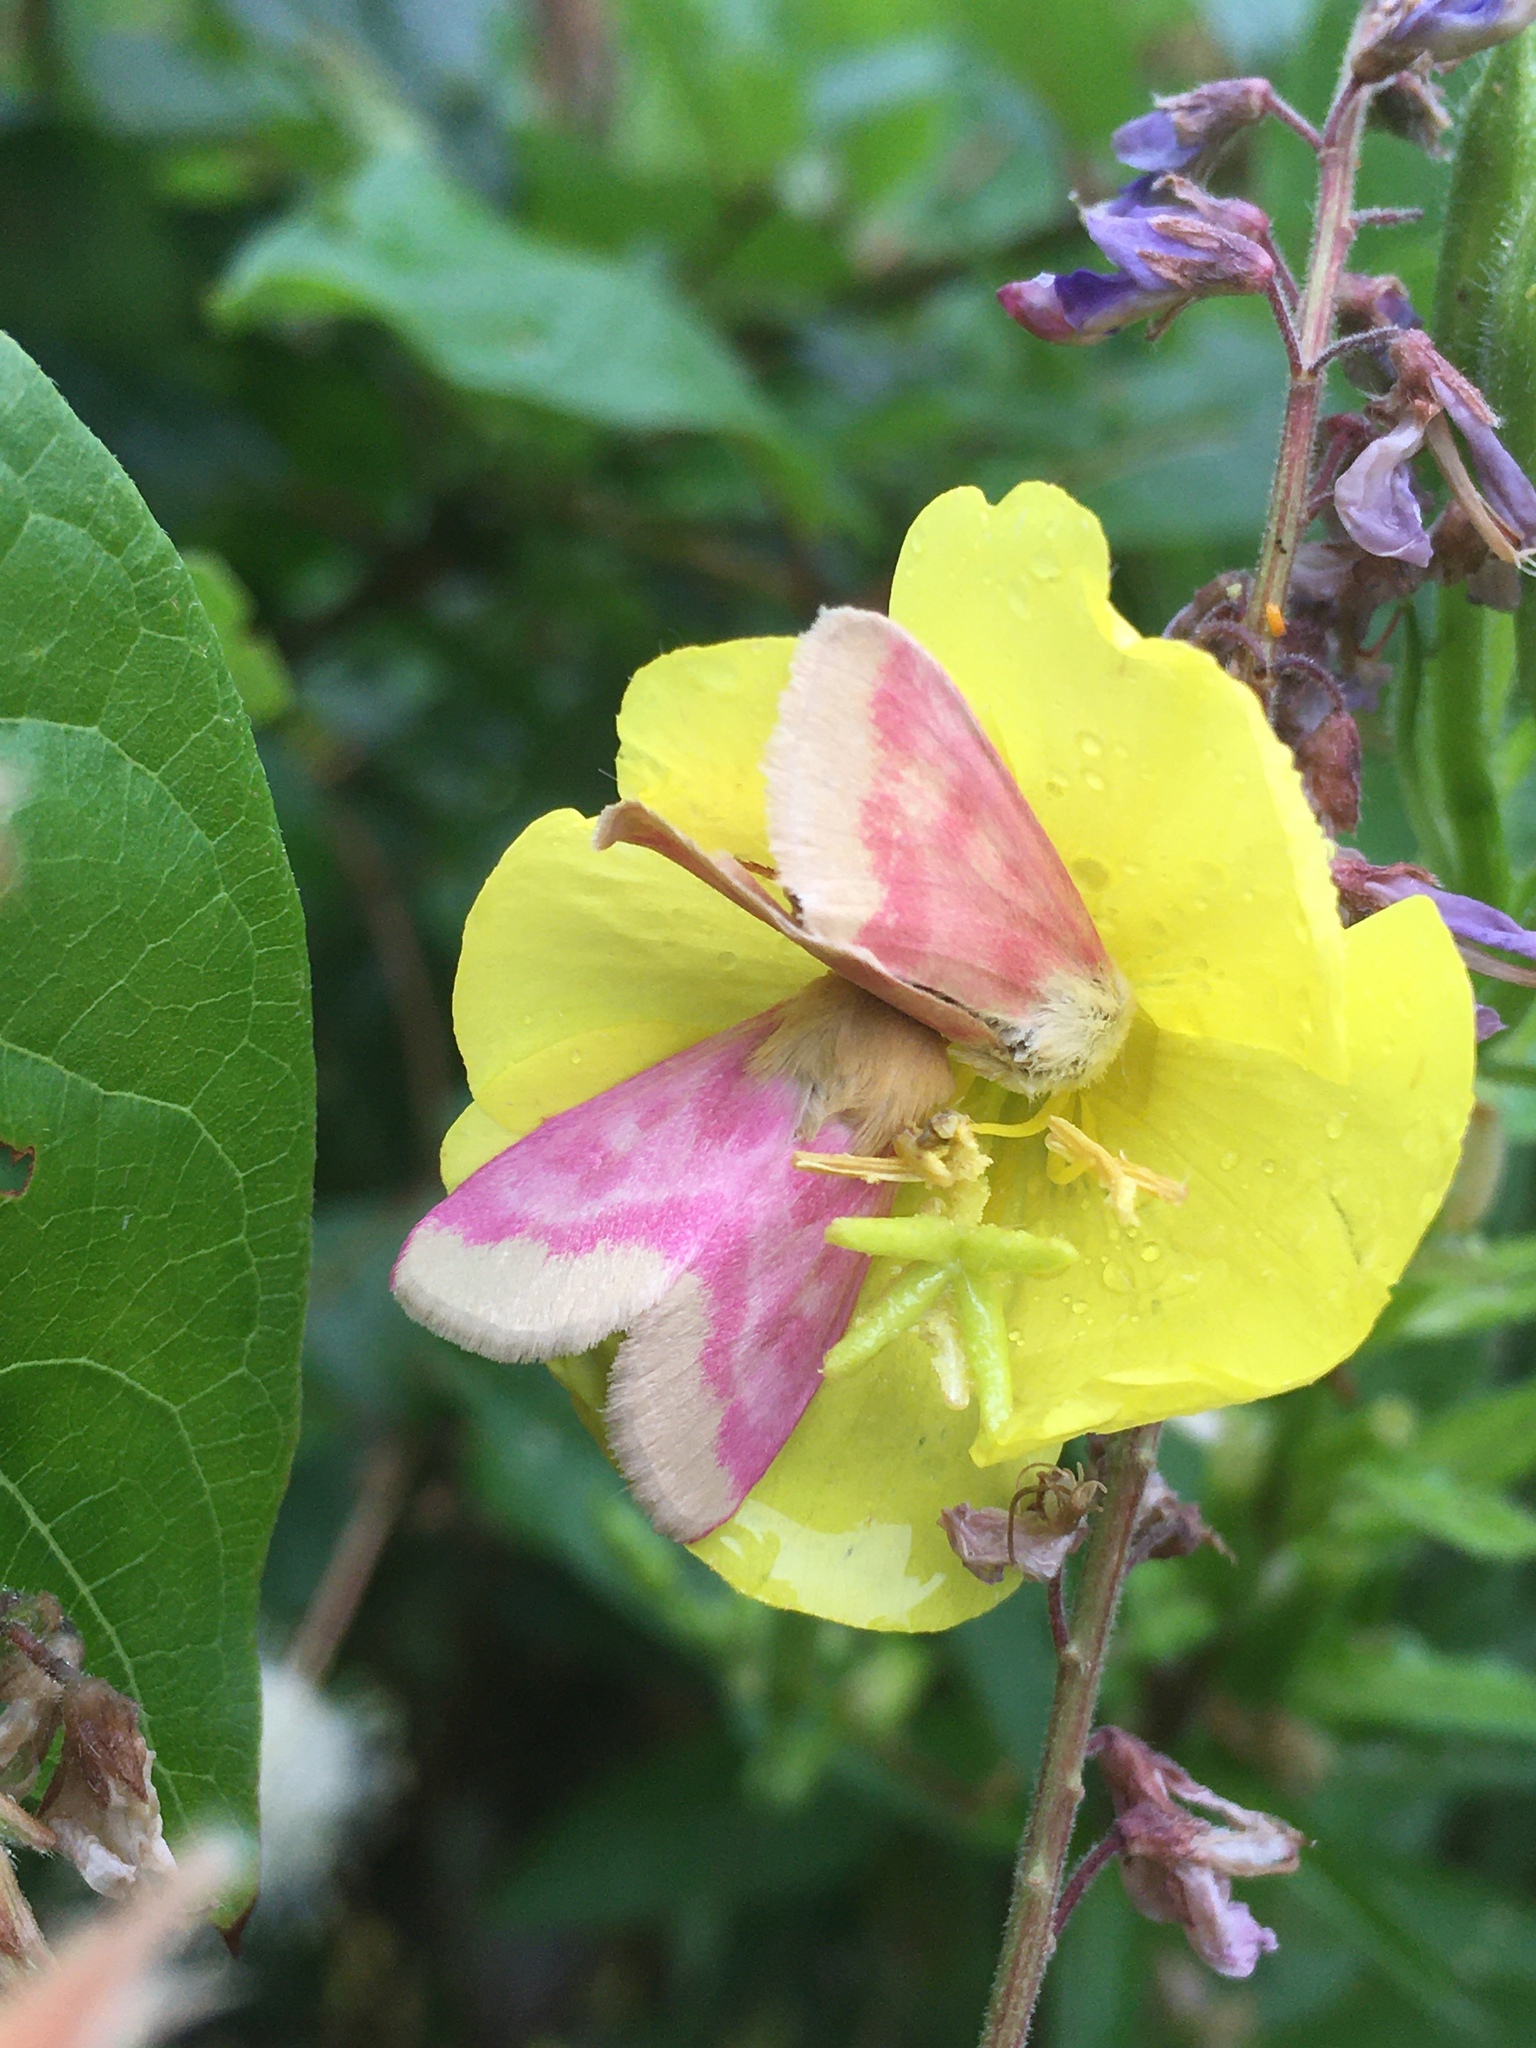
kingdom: Animalia
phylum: Arthropoda
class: Insecta
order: Lepidoptera
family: Noctuidae
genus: Schinia
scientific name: Schinia florida
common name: Primrose moth
